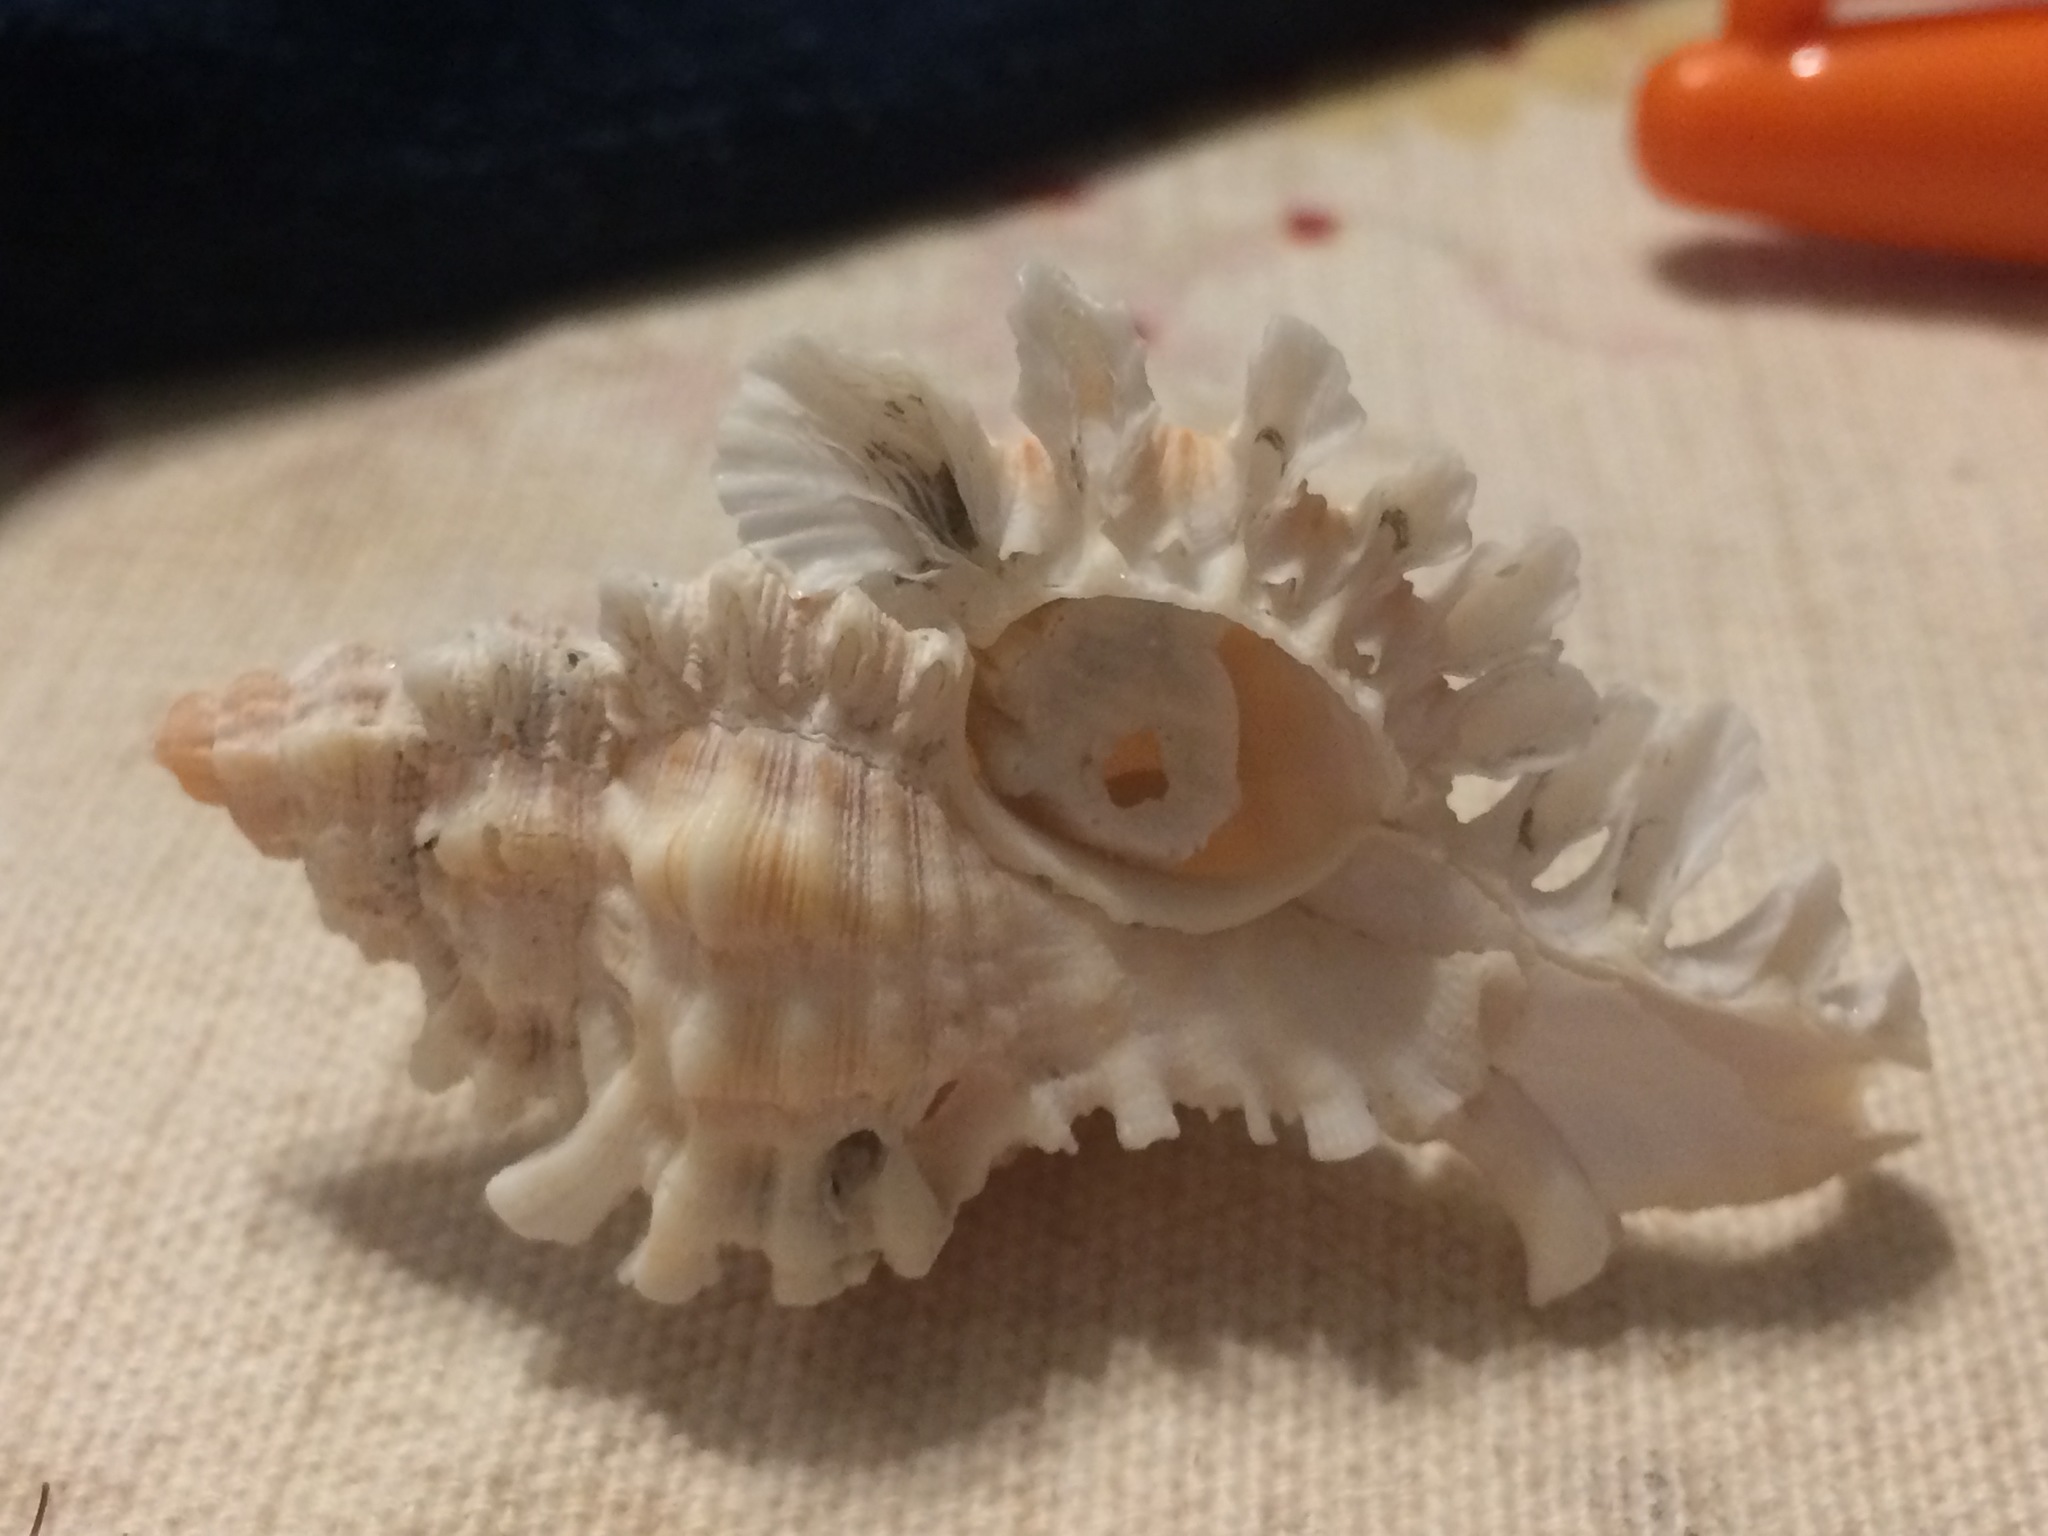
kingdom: Animalia
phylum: Mollusca
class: Gastropoda
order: Neogastropoda
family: Muricidae
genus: Chicoreus
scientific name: Chicoreus florifer
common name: Flowery lace murex
